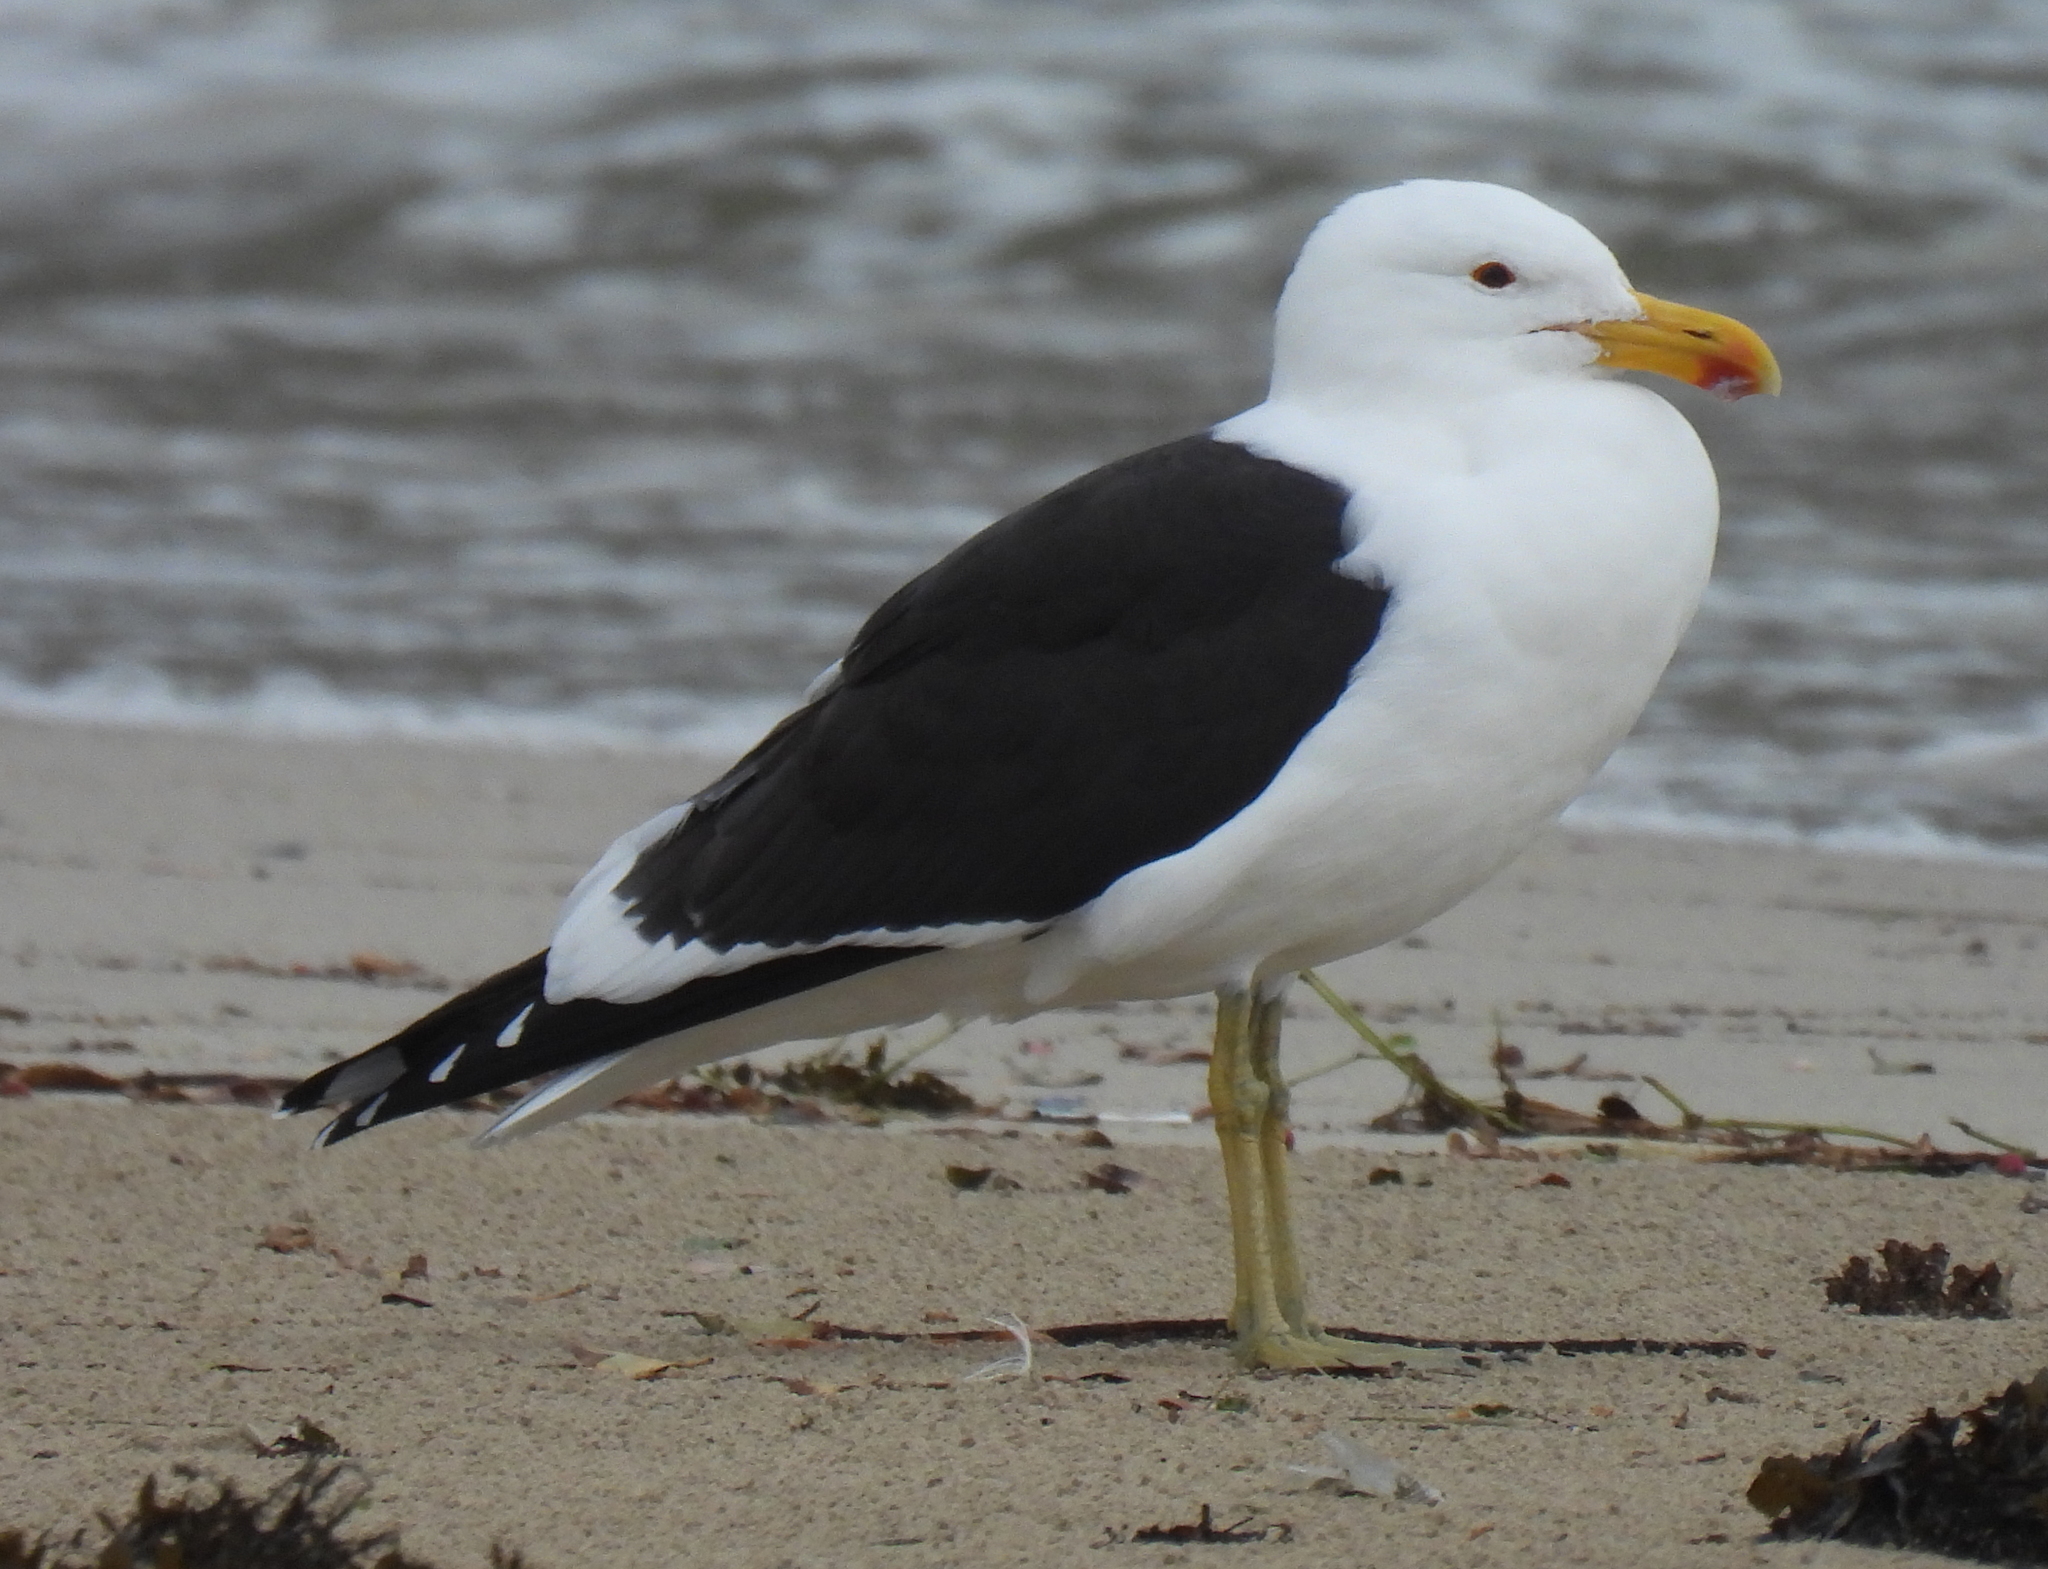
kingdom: Animalia
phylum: Chordata
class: Aves
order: Charadriiformes
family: Laridae
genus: Larus
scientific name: Larus dominicanus
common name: Kelp gull
